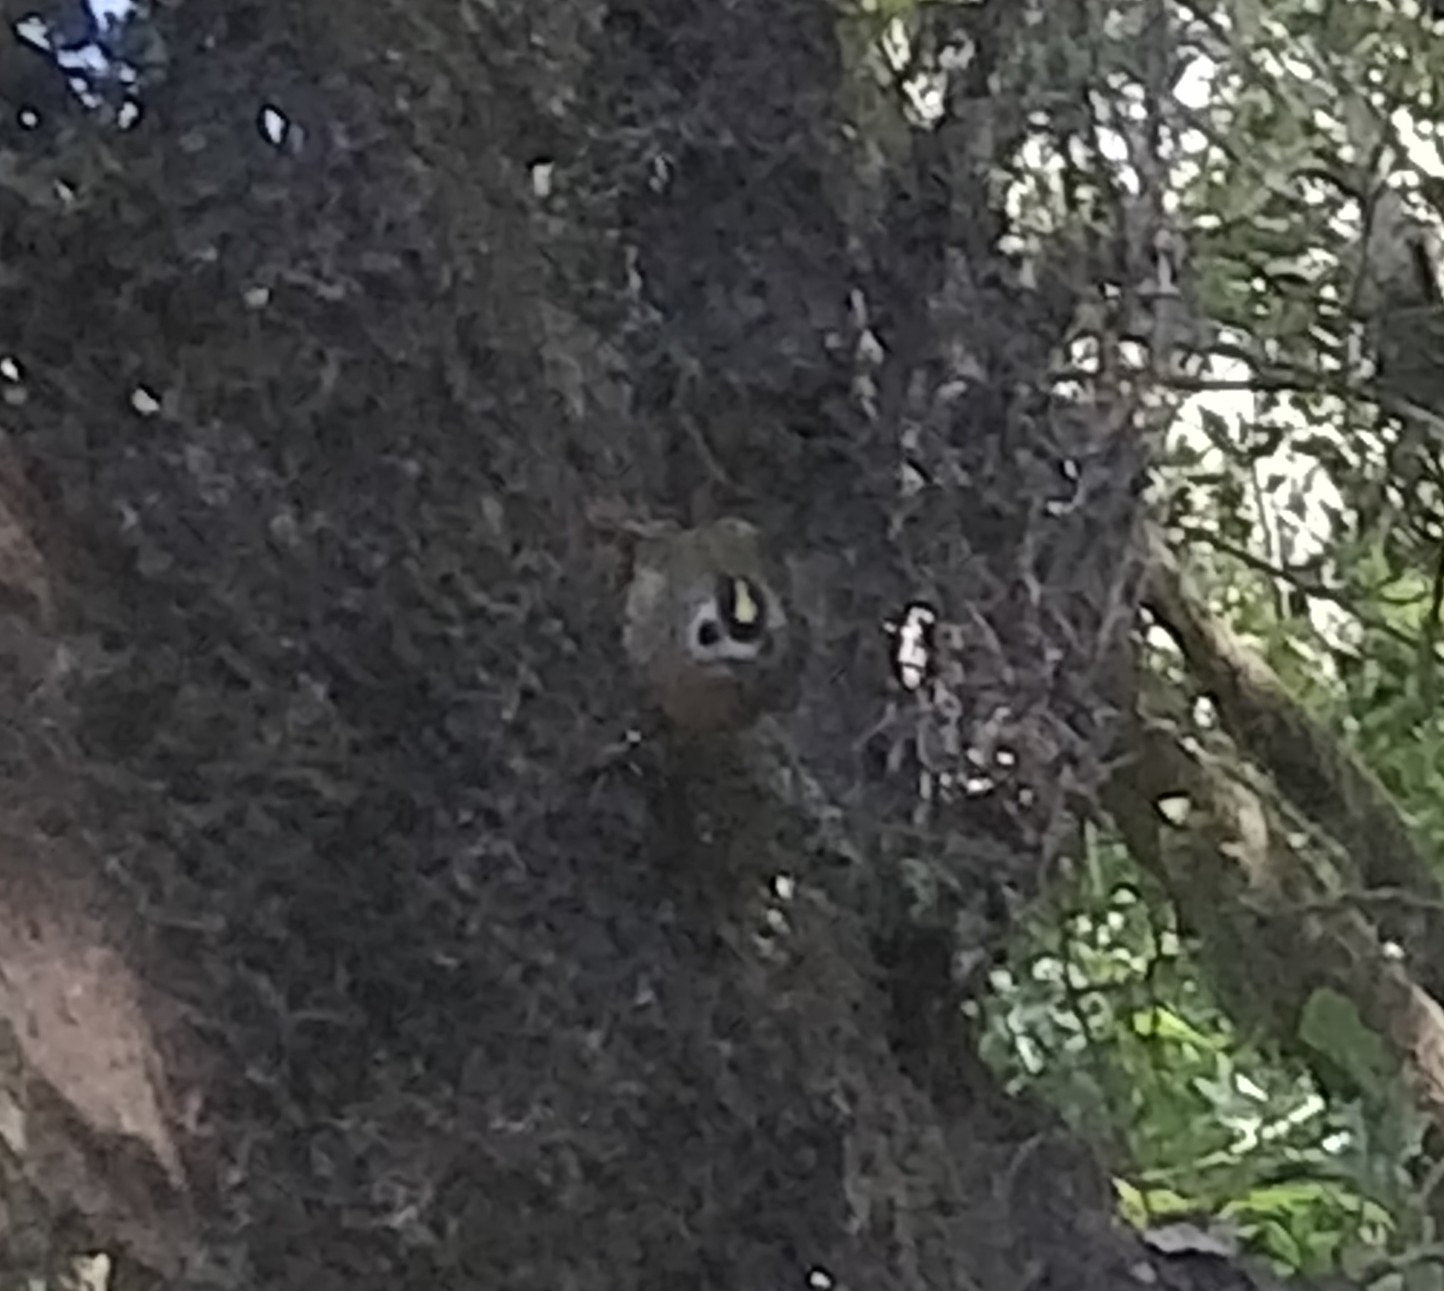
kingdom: Animalia
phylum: Chordata
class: Aves
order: Passeriformes
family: Regulidae
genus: Regulus
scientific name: Regulus regulus
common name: Goldcrest
